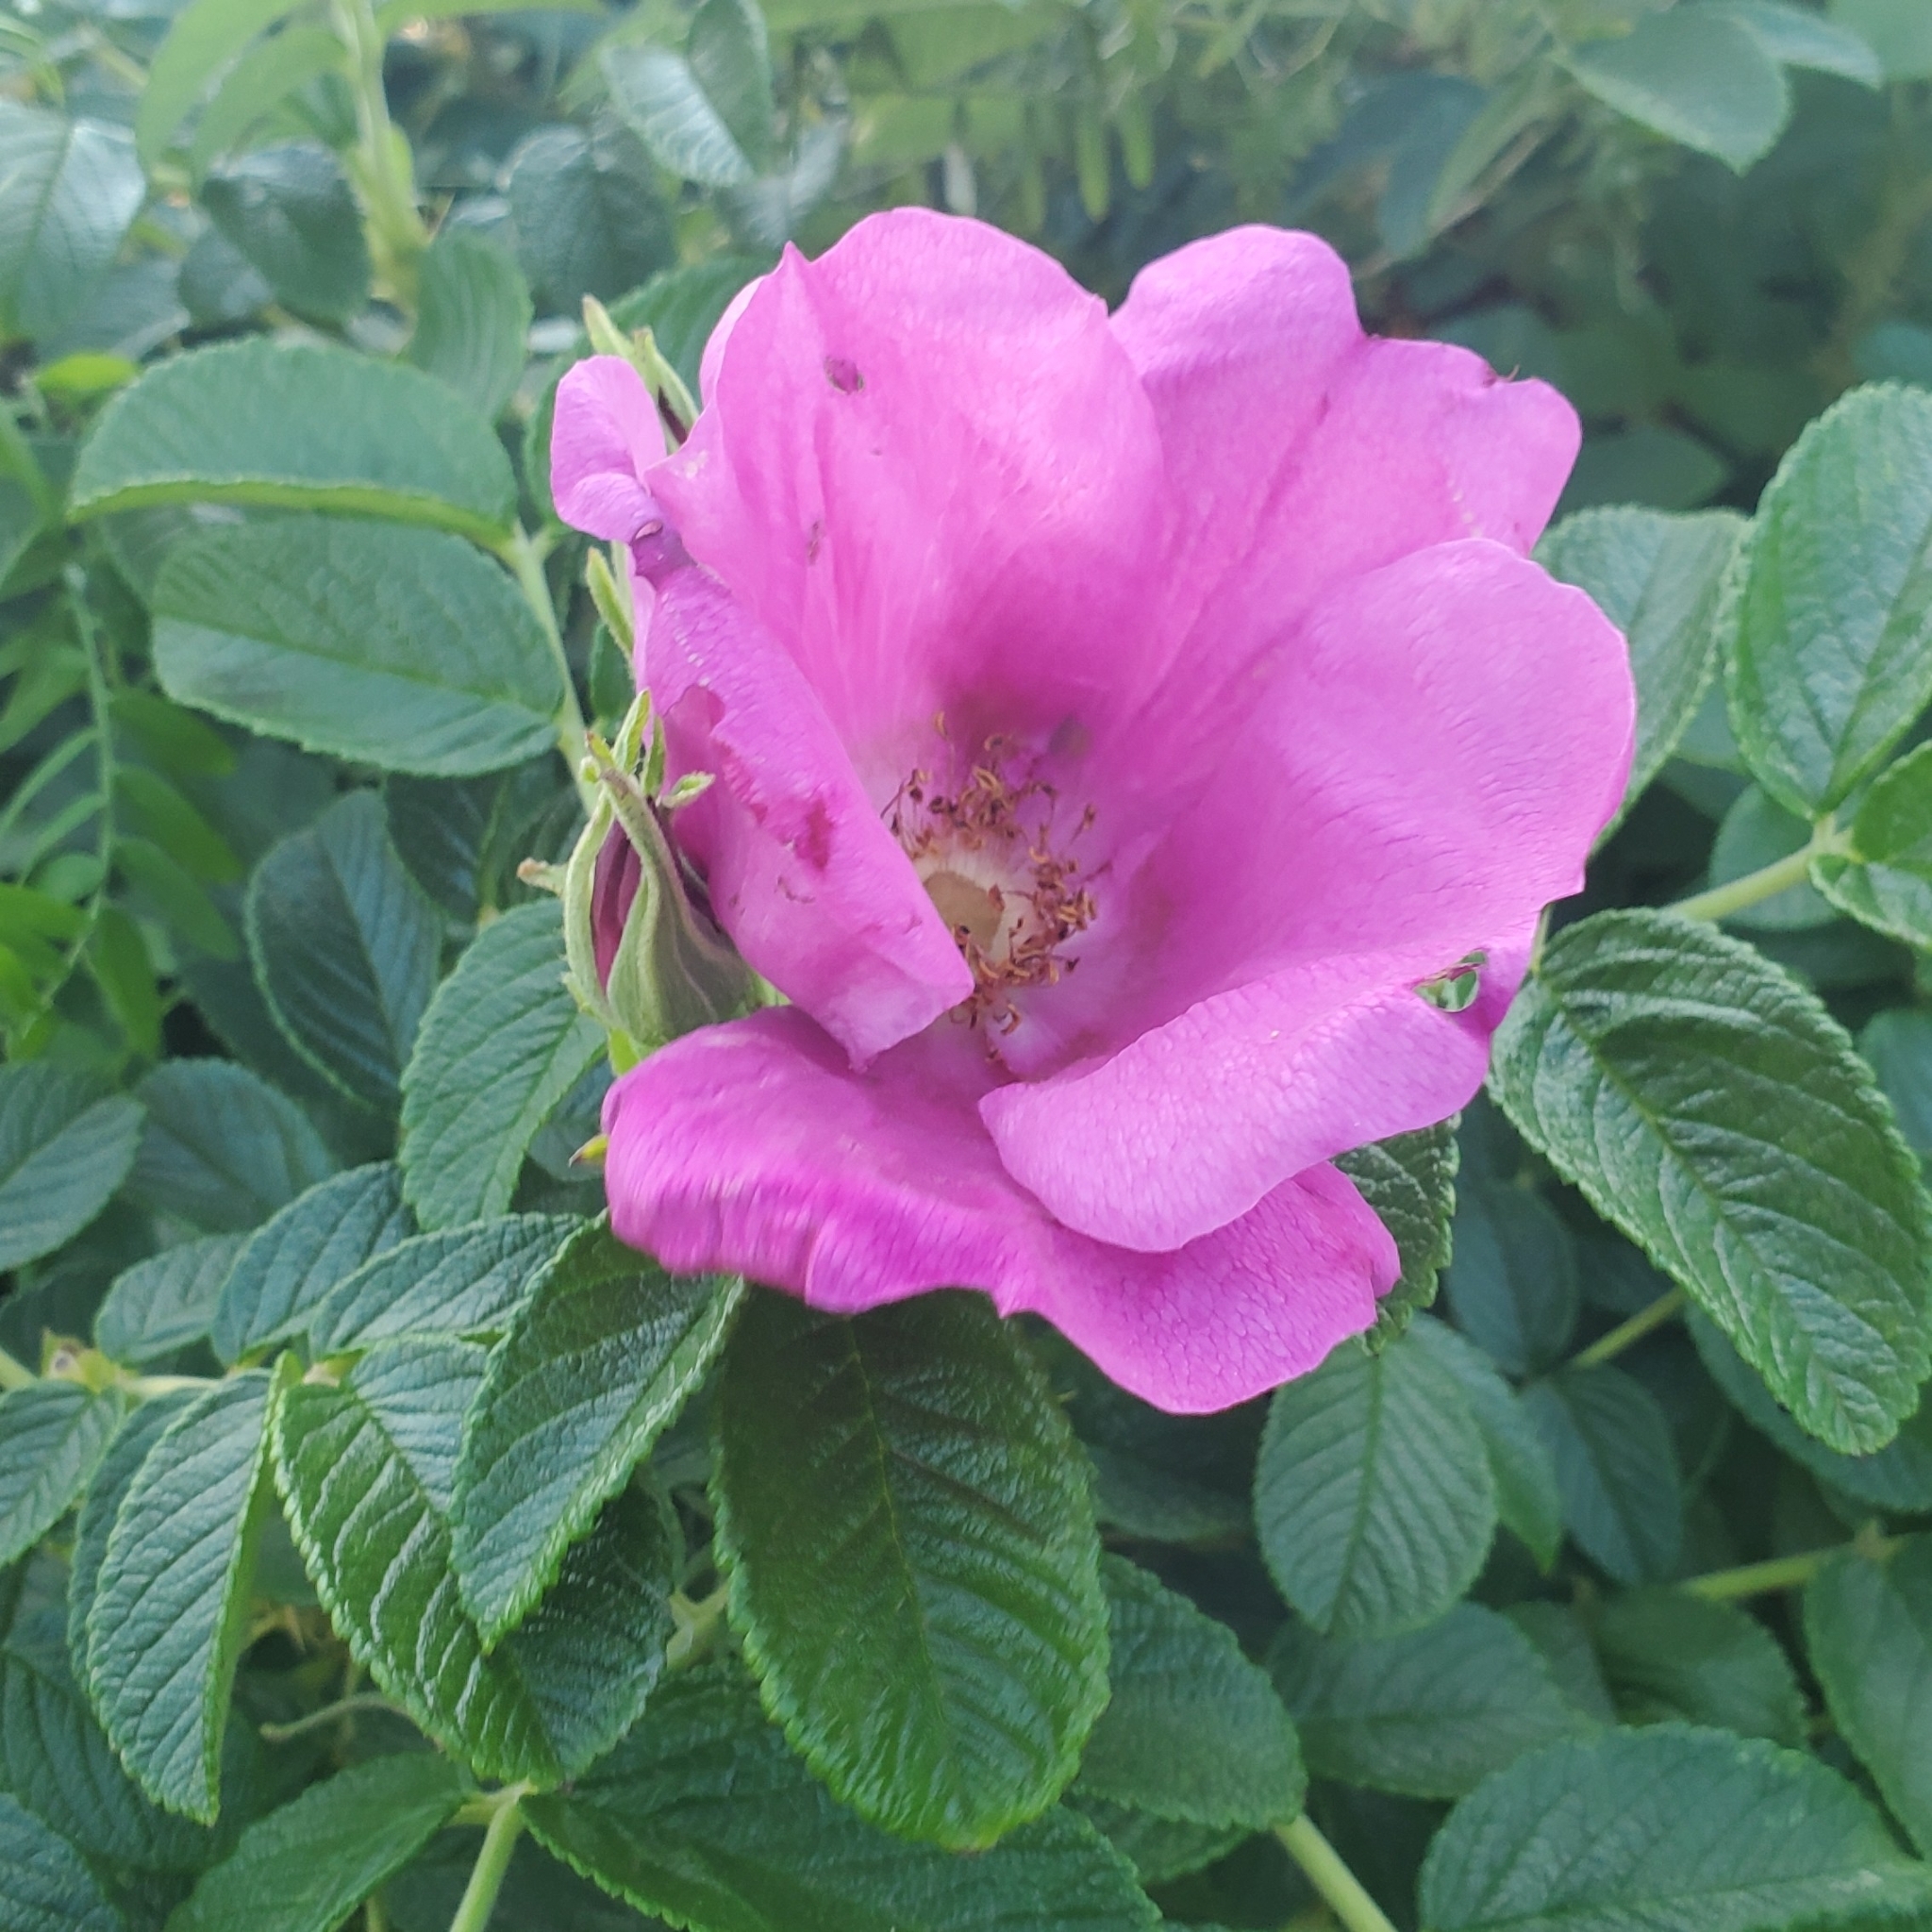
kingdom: Plantae
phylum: Tracheophyta
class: Magnoliopsida
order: Rosales
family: Rosaceae
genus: Rosa
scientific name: Rosa rugosa
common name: Japanese rose
